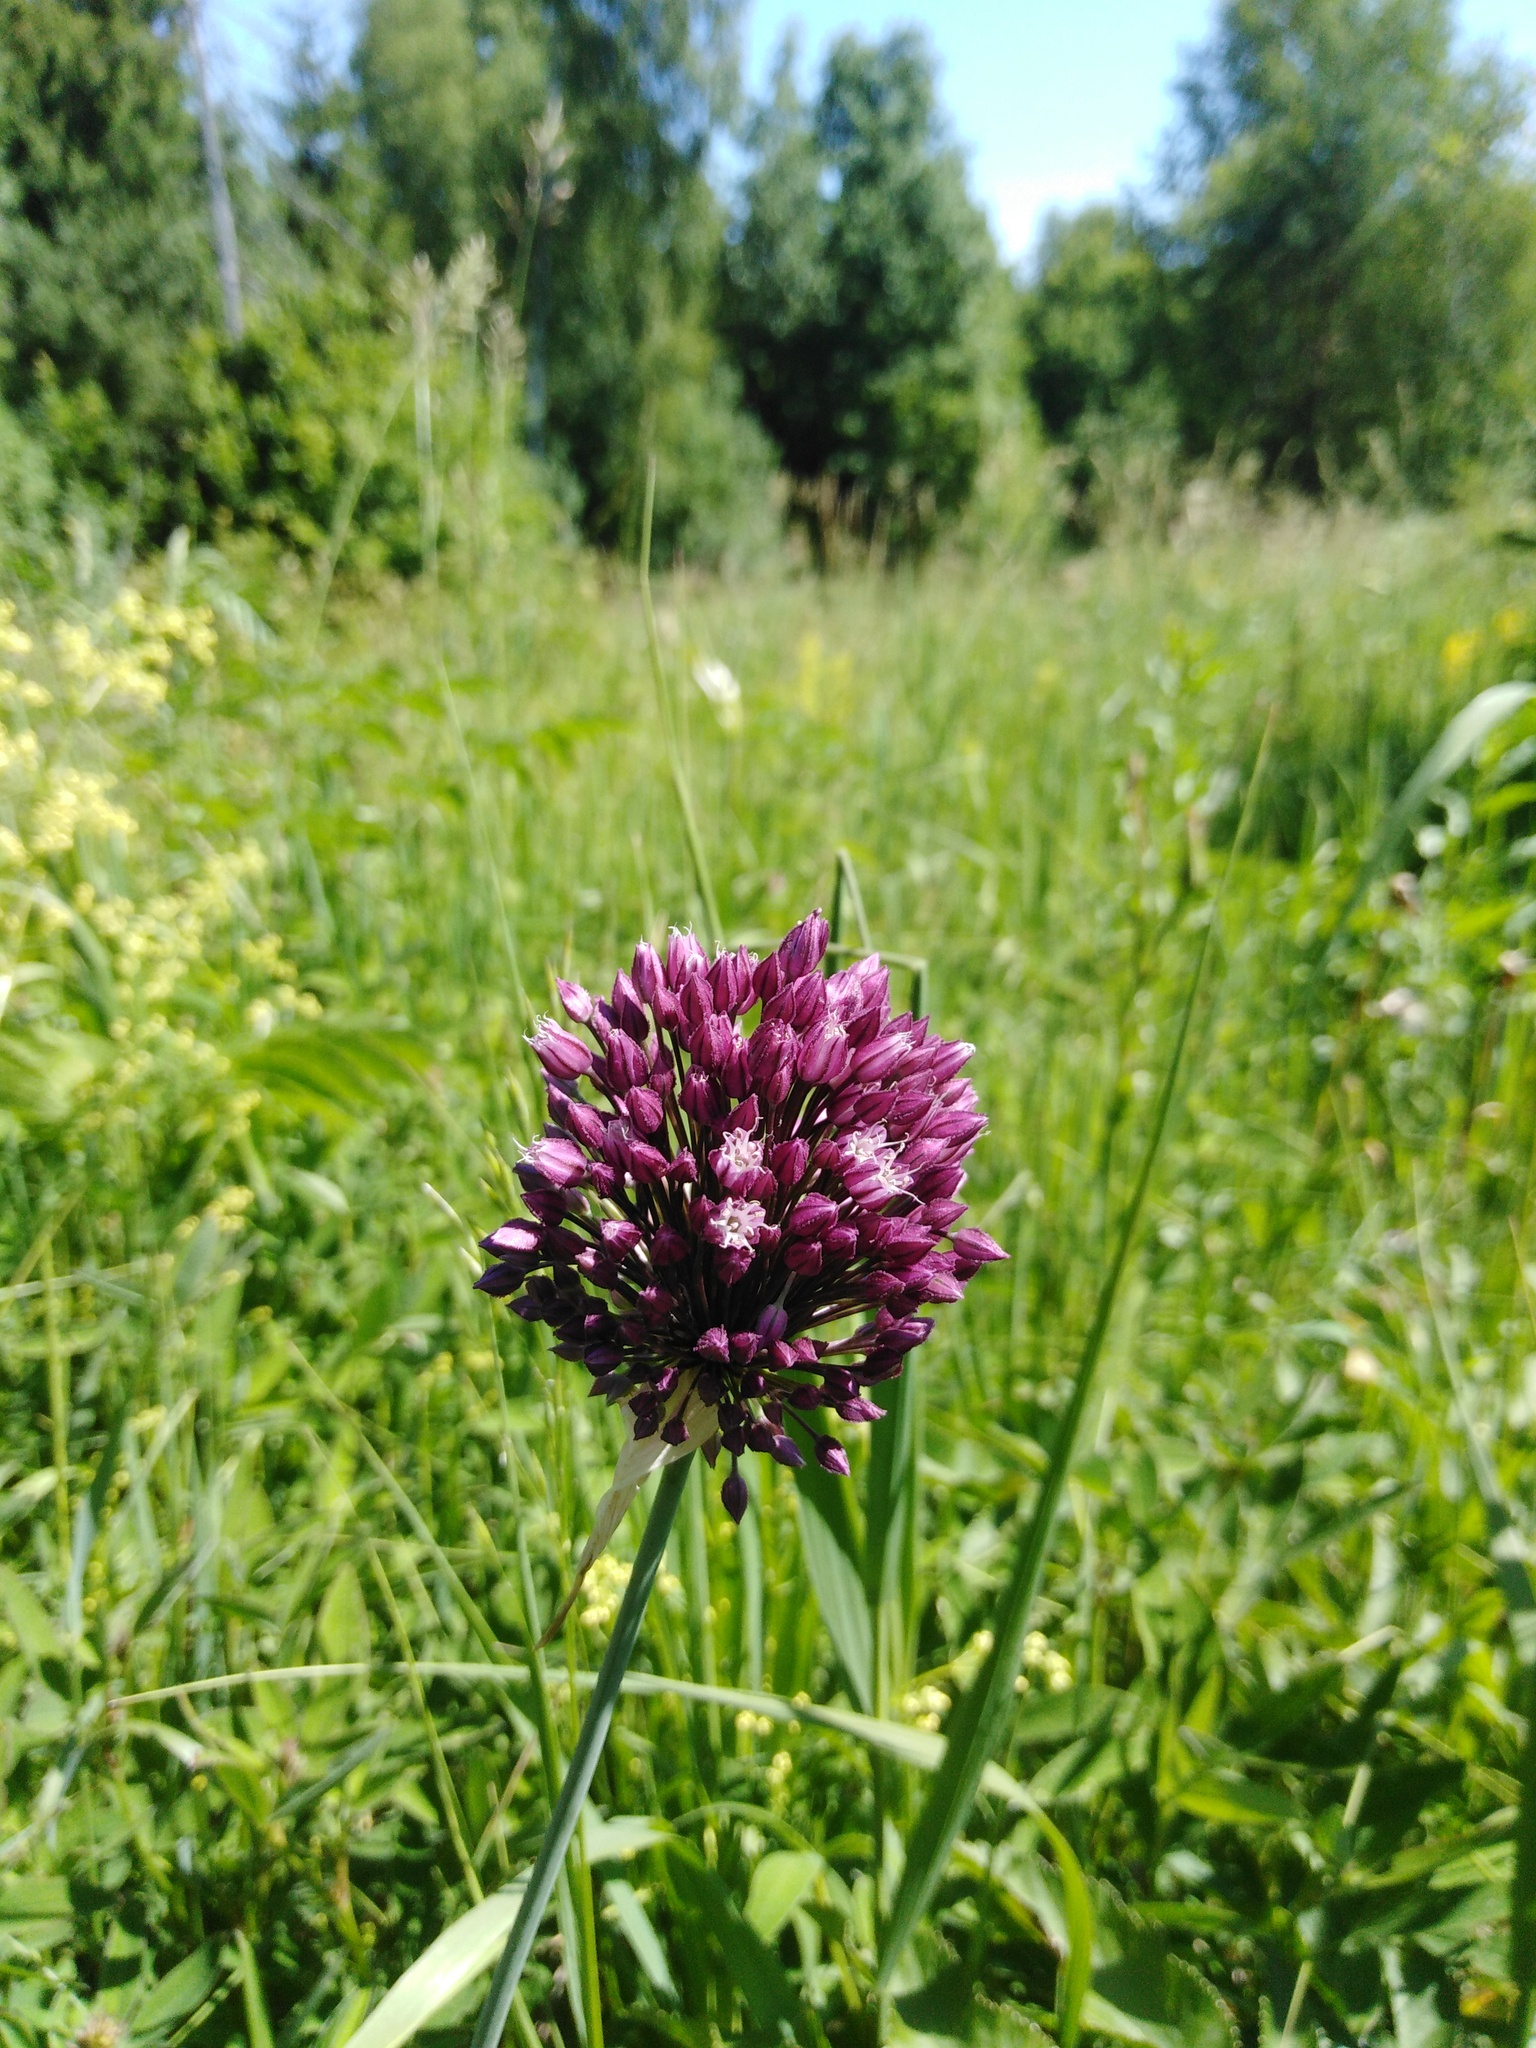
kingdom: Plantae
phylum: Tracheophyta
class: Liliopsida
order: Asparagales
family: Amaryllidaceae
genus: Allium
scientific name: Allium rotundum
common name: Sand leek
